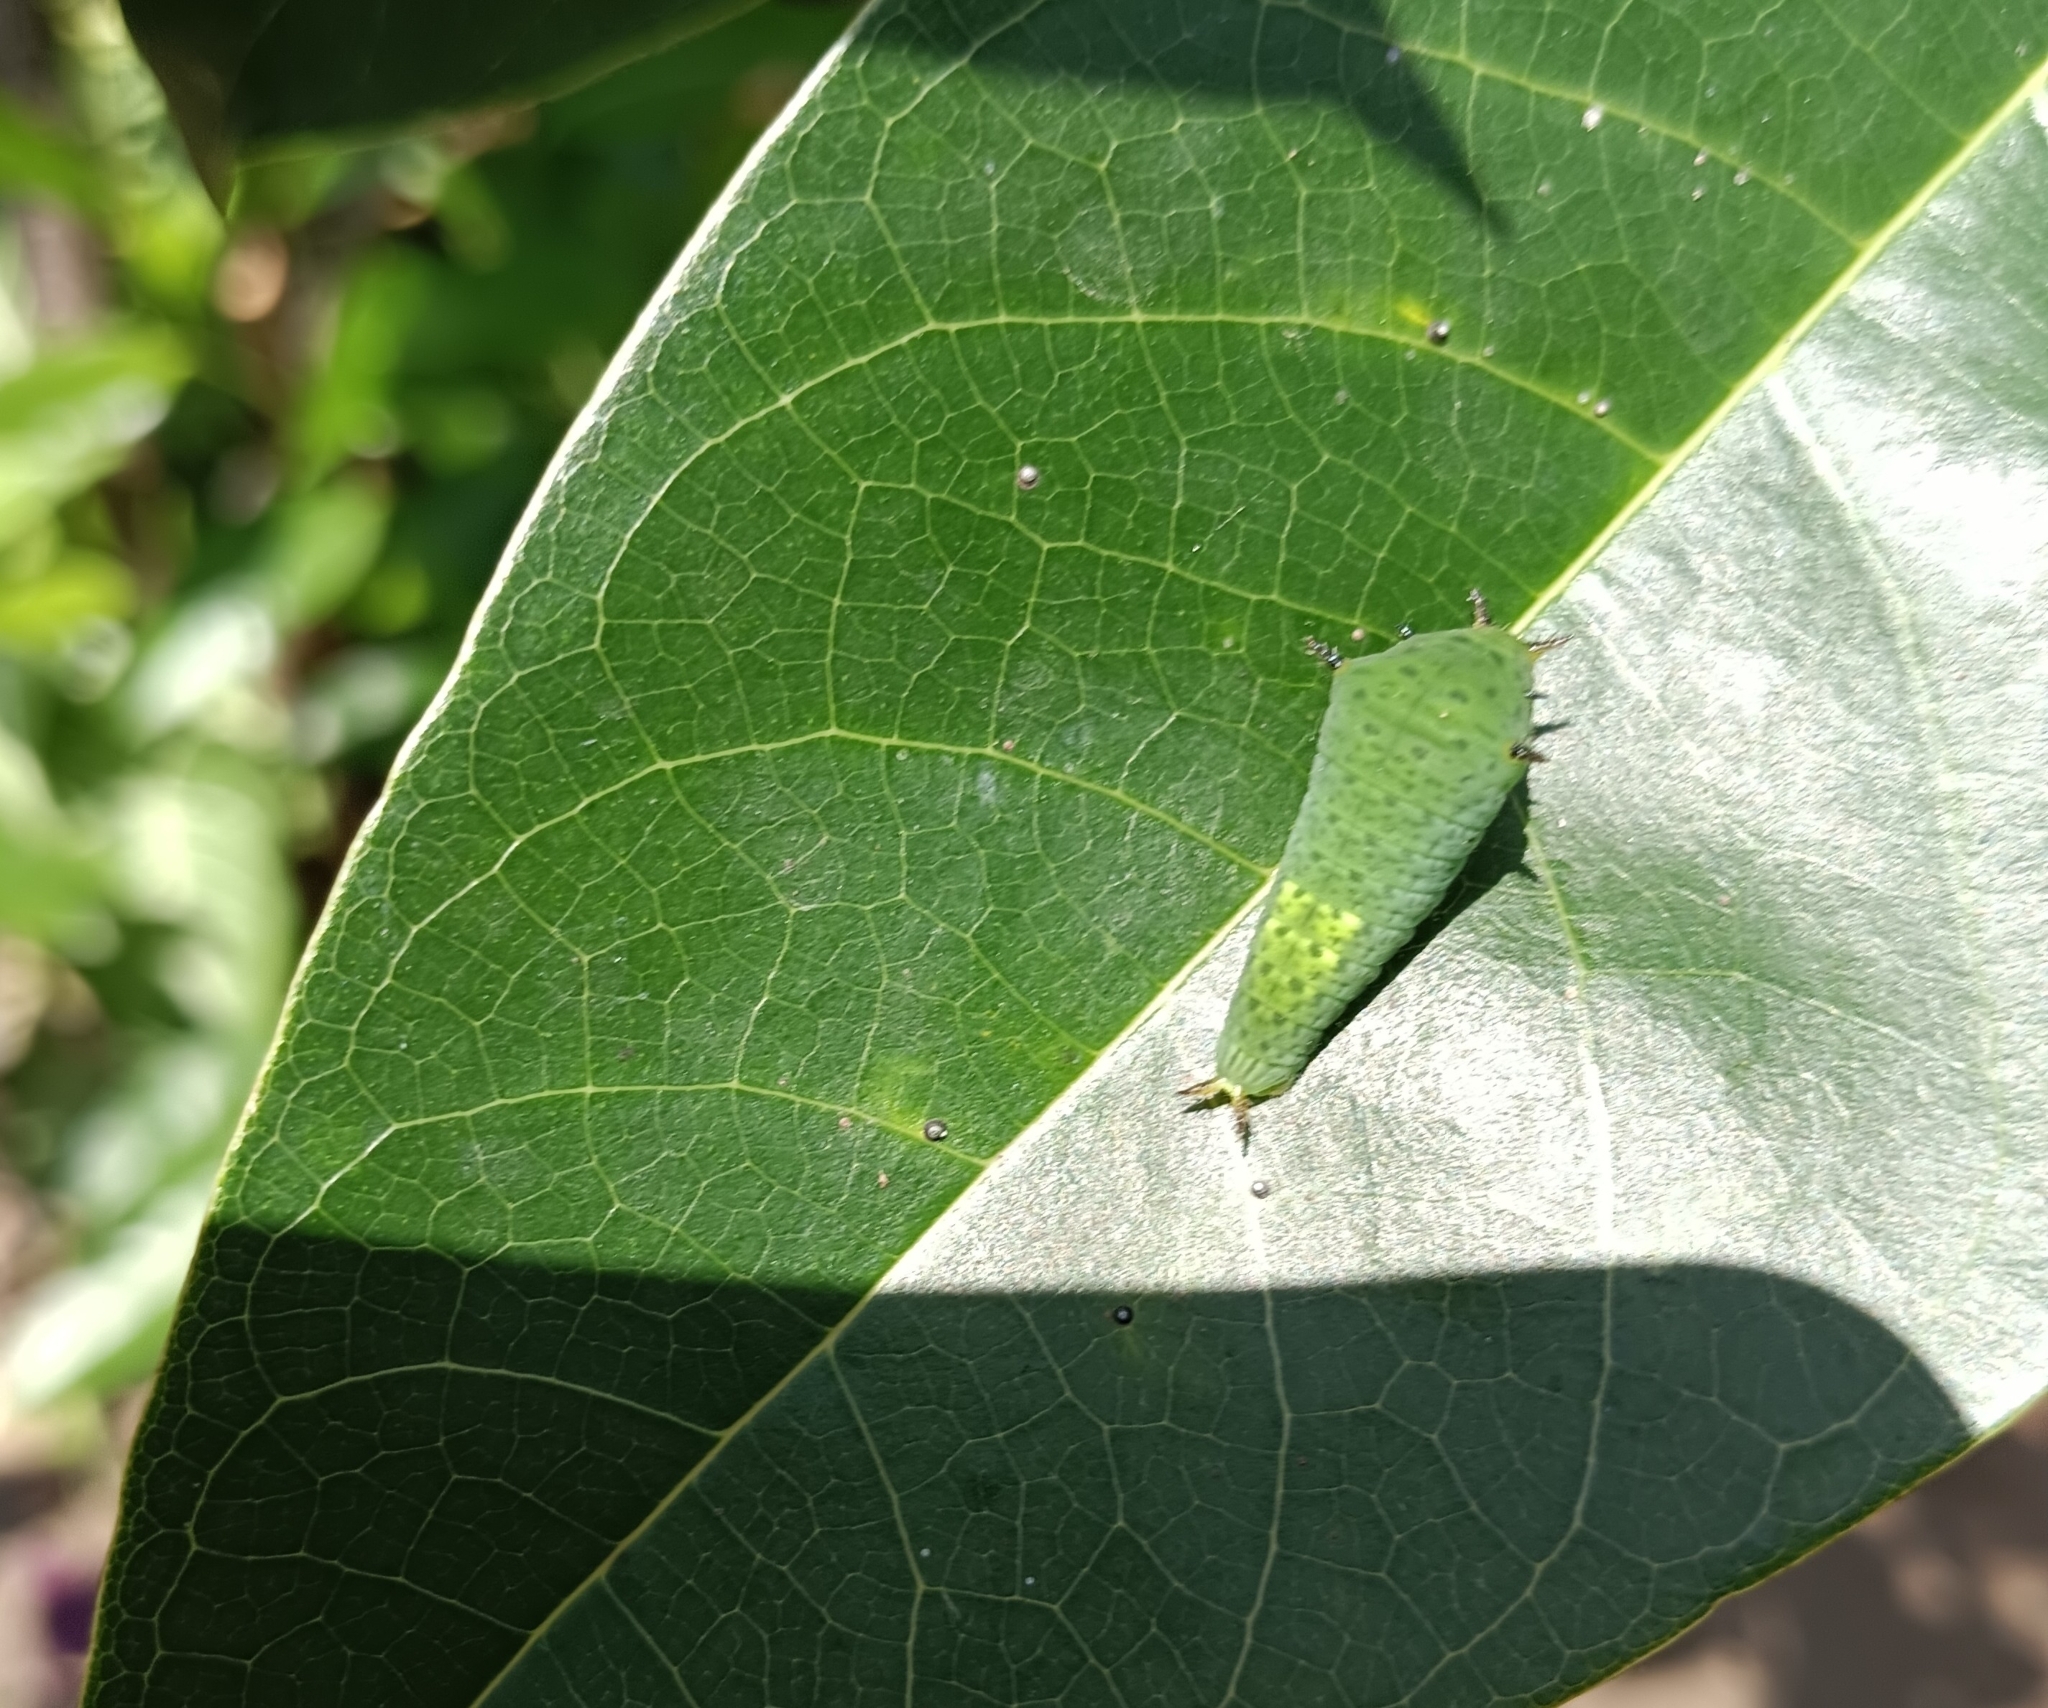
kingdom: Animalia
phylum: Arthropoda
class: Insecta
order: Lepidoptera
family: Papilionidae
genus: Graphium
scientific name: Graphium agamemnon
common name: Tailed jay
